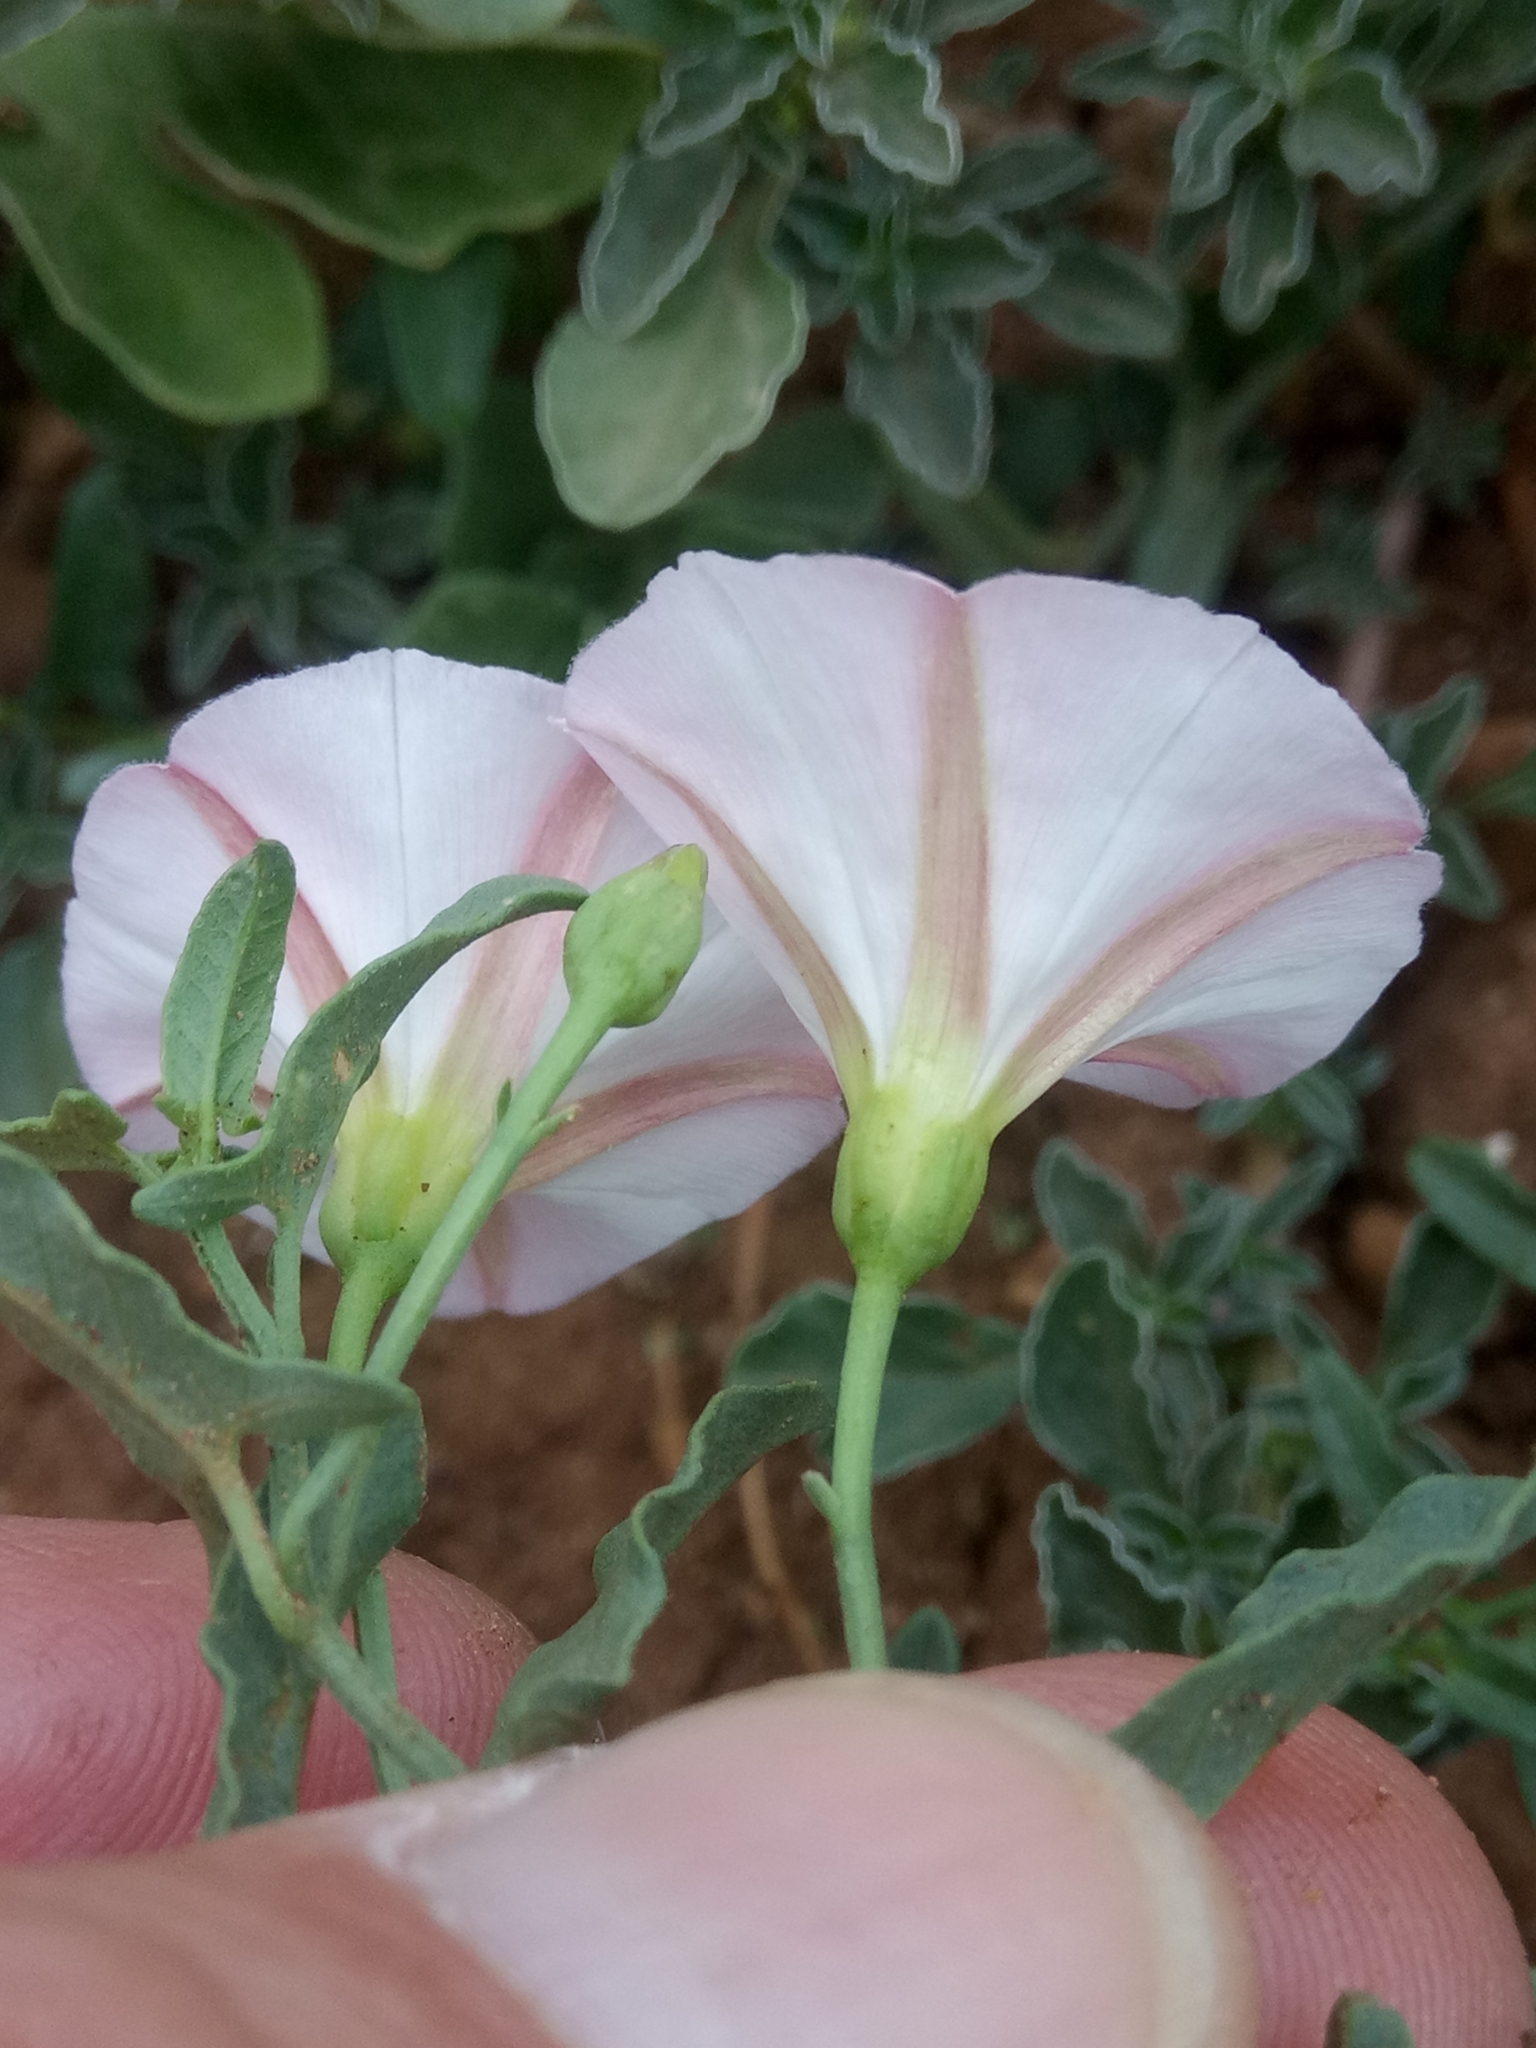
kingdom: Plantae
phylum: Tracheophyta
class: Magnoliopsida
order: Solanales
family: Convolvulaceae
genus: Convolvulus
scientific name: Convolvulus arvensis
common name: Field bindweed
